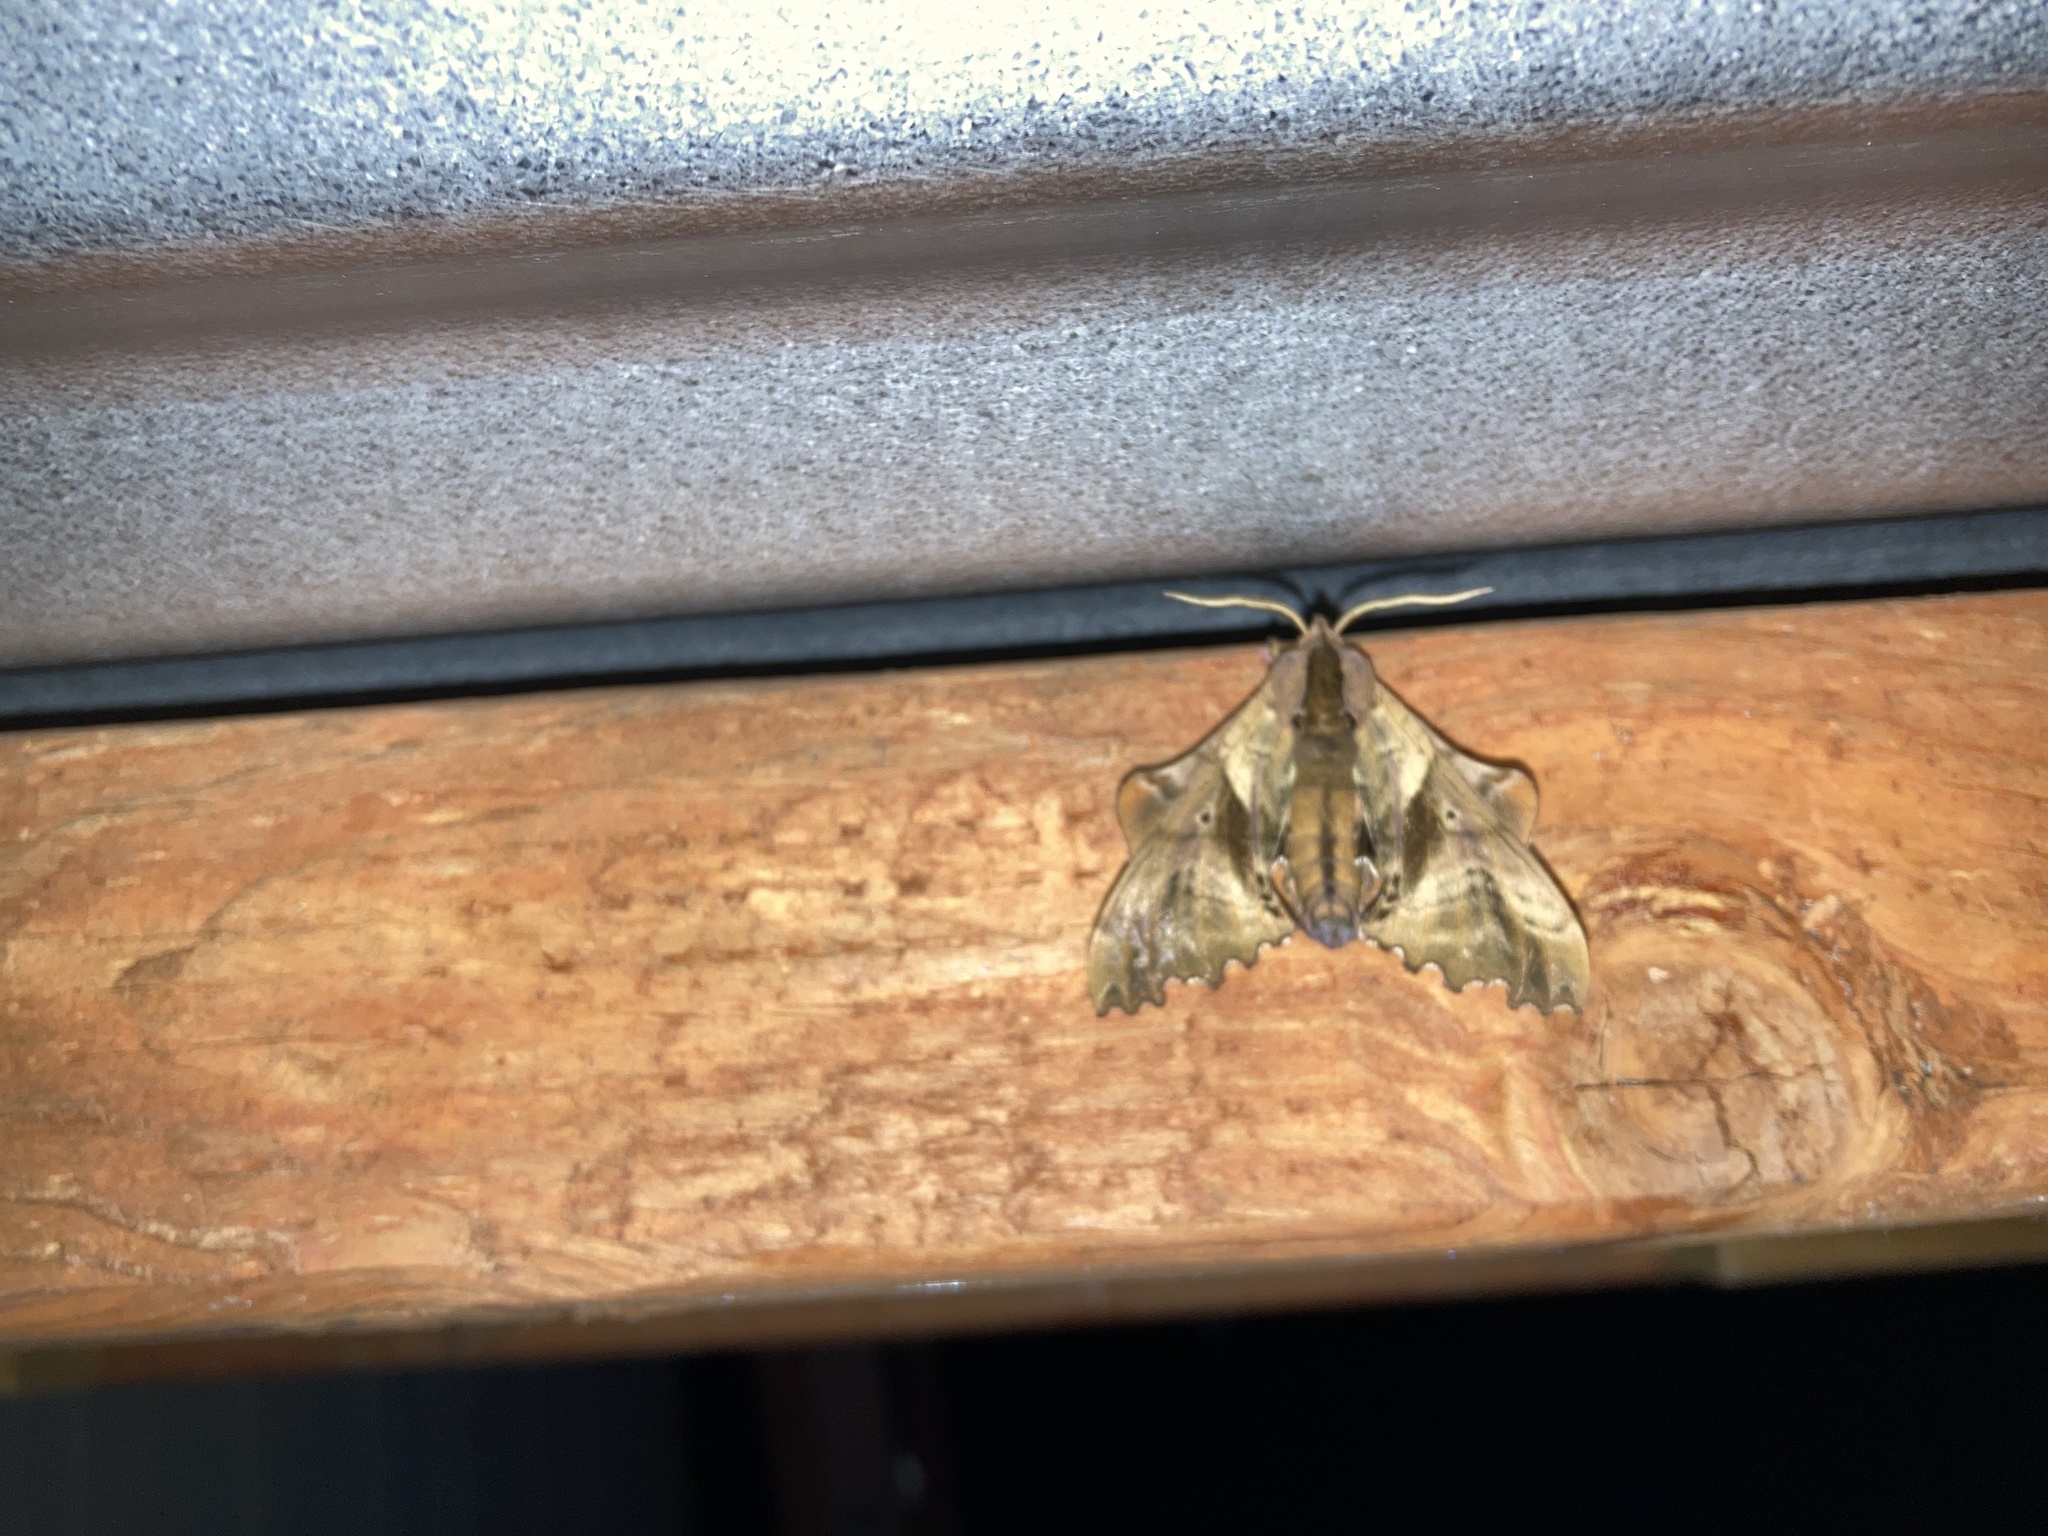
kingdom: Animalia
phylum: Arthropoda
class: Insecta
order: Lepidoptera
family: Sphingidae
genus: Paonias
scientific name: Paonias excaecata
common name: Blind-eyed sphinx
